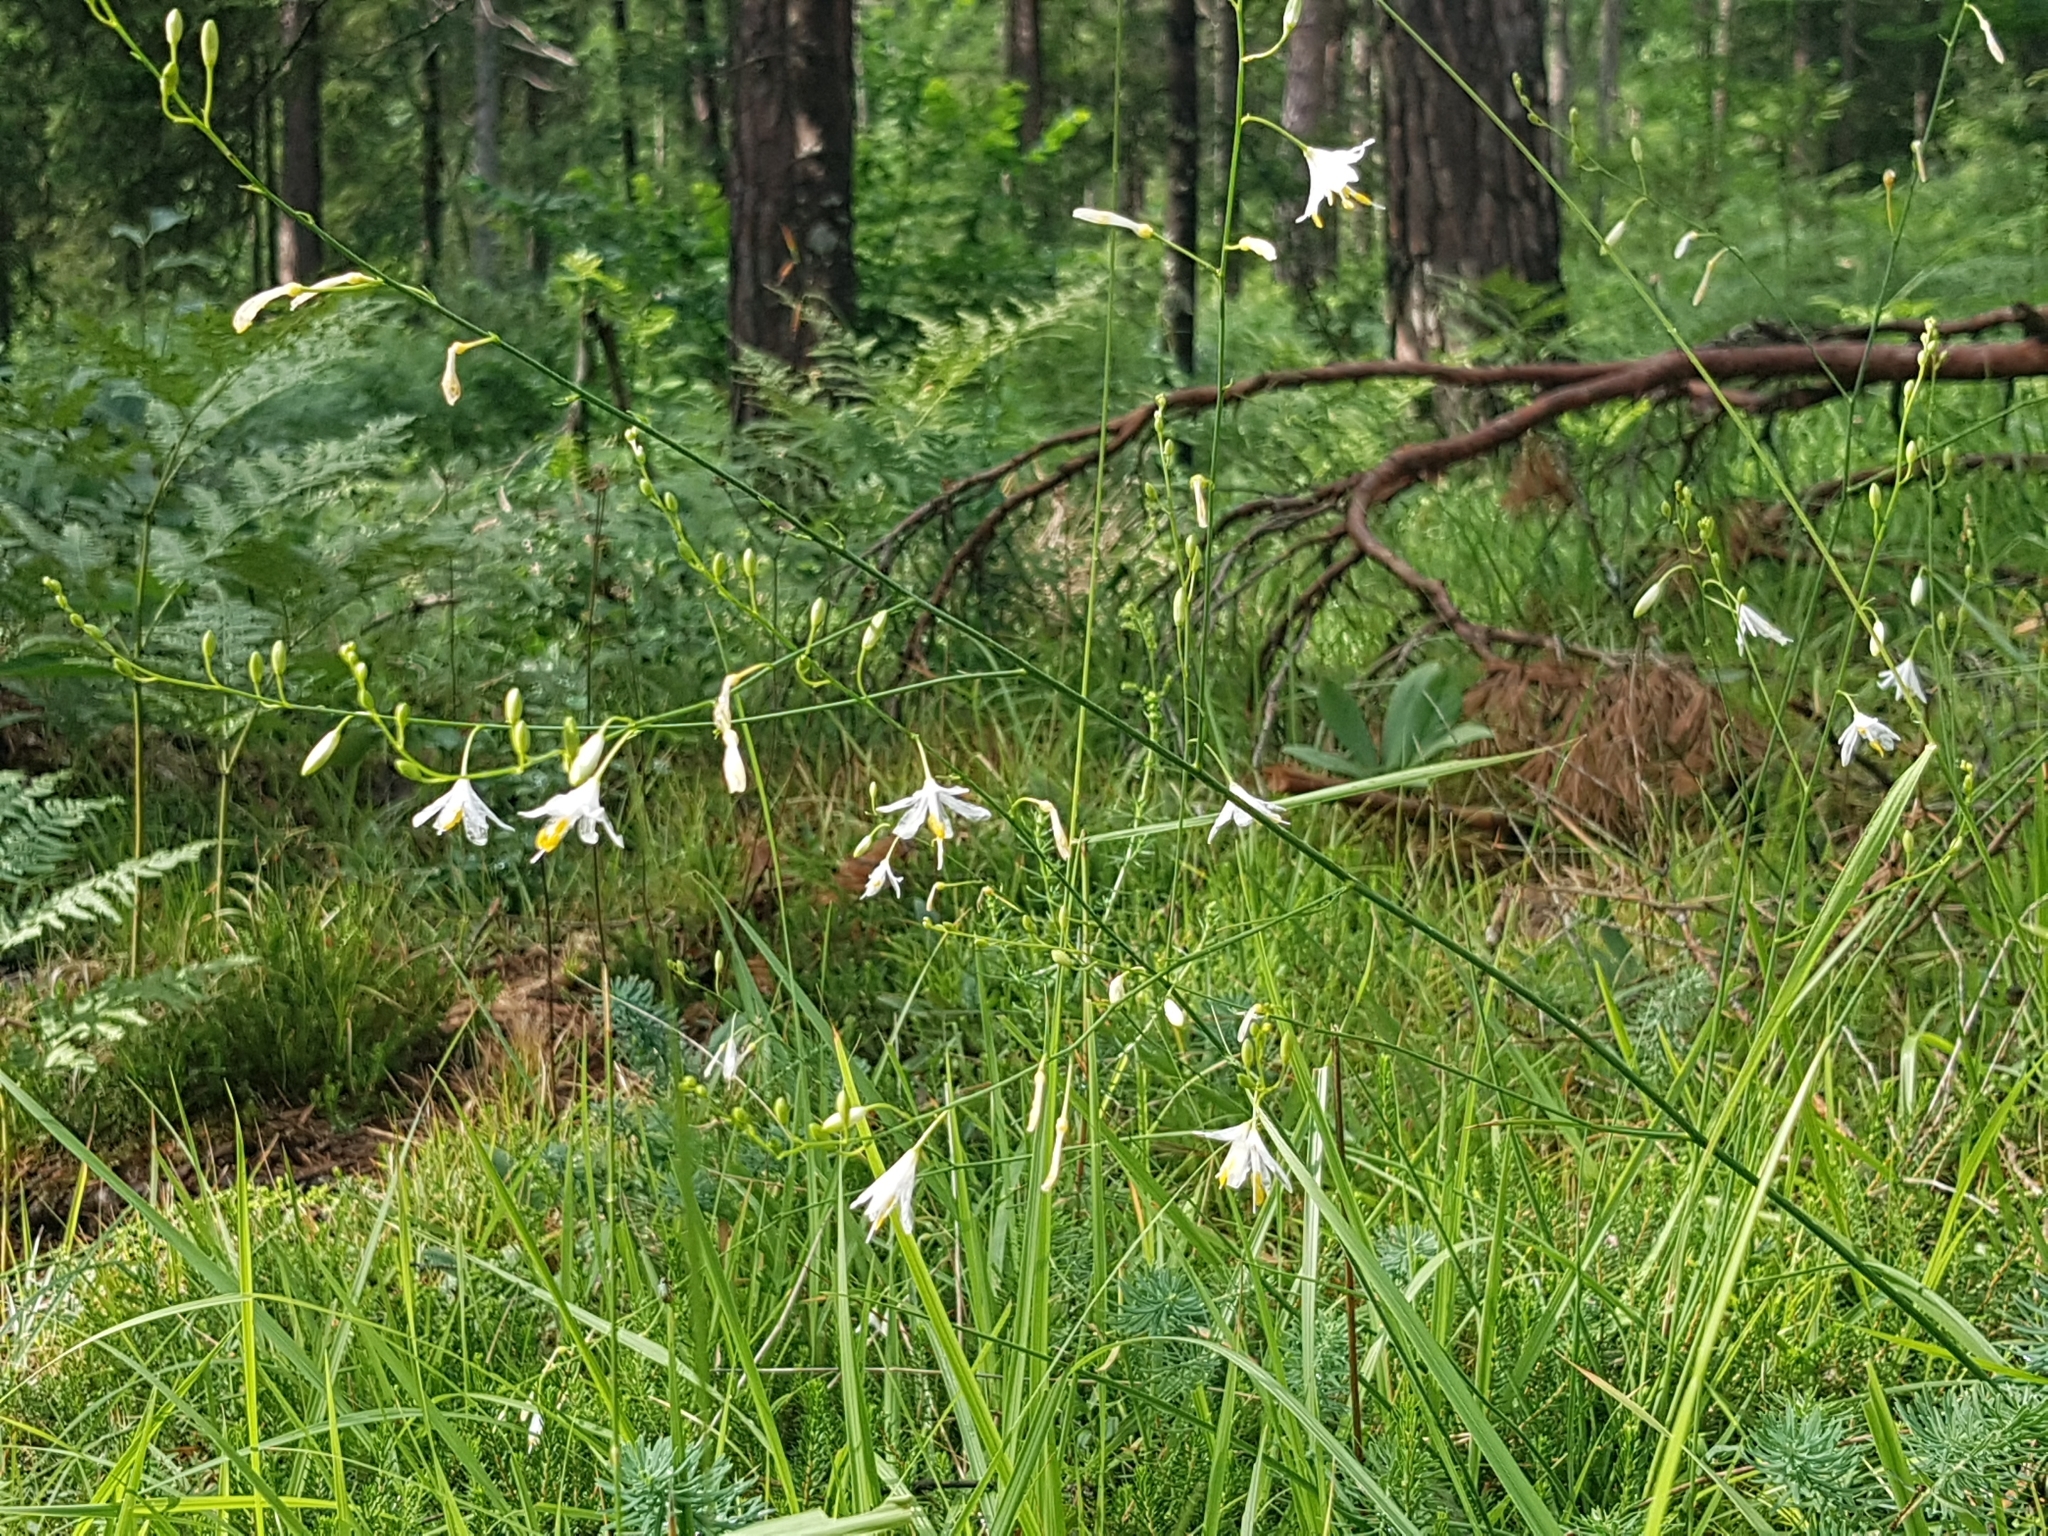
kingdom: Plantae
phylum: Tracheophyta
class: Liliopsida
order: Asparagales
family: Asparagaceae
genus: Anthericum
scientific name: Anthericum ramosum
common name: Branched st. bernard's-lily
